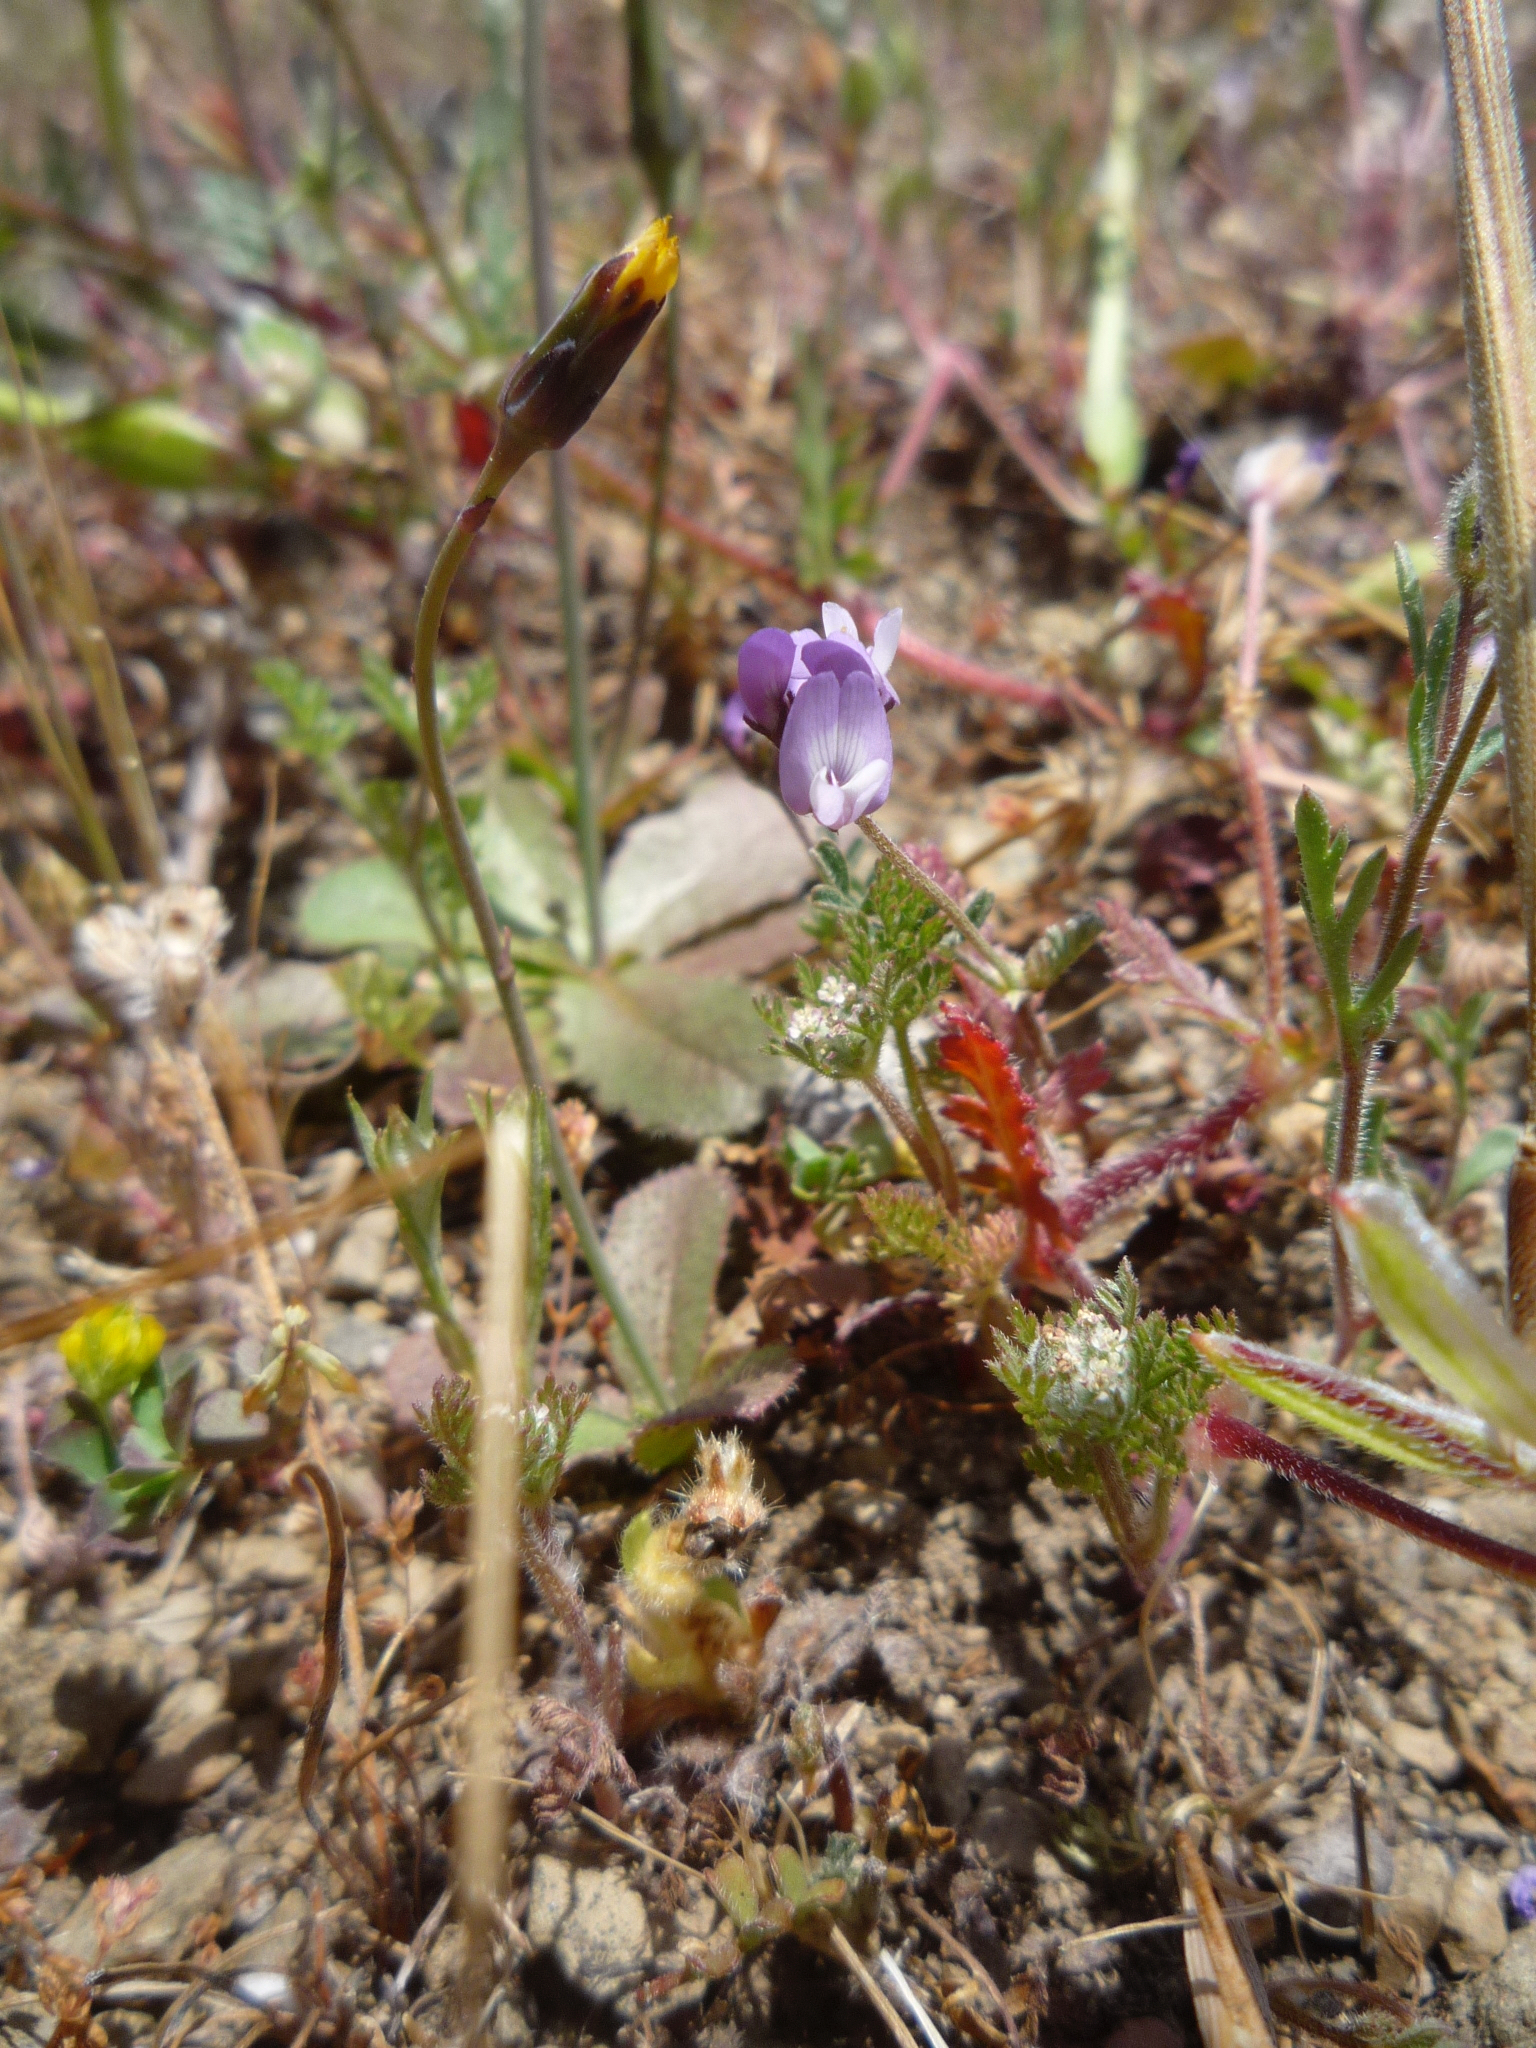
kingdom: Plantae
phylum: Tracheophyta
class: Magnoliopsida
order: Apiales
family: Apiaceae
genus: Daucus
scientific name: Daucus pusillus
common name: Southwest wild carrot
